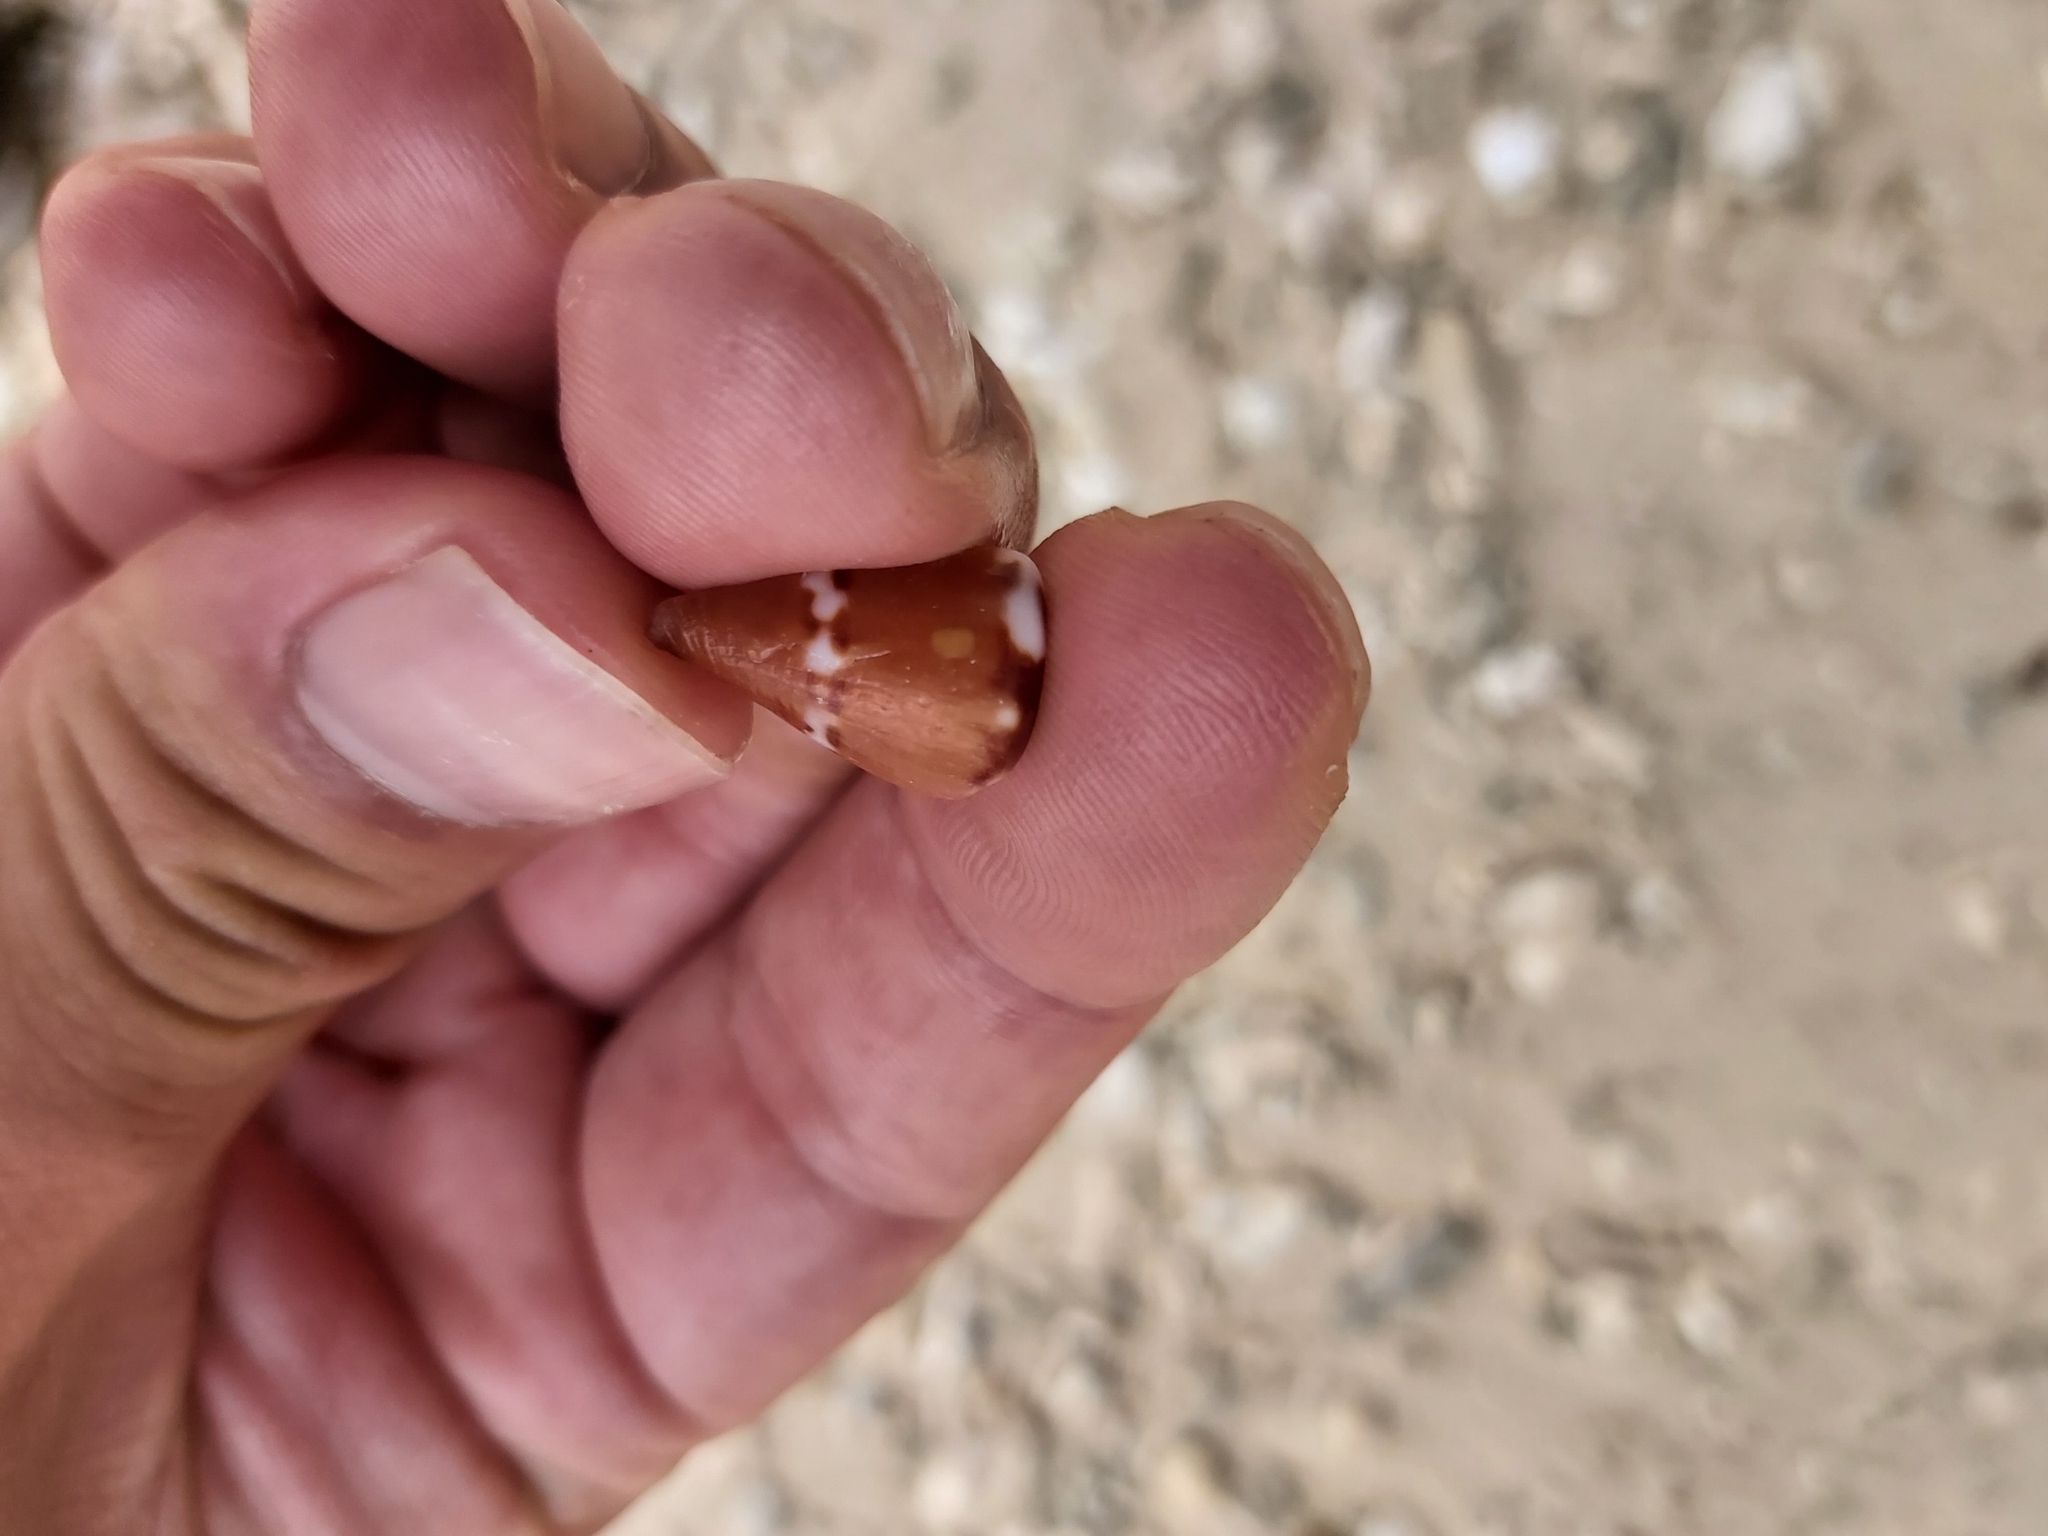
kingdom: Animalia
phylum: Mollusca
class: Gastropoda
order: Neogastropoda
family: Conidae
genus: Conus
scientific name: Conus capitaneus
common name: Captain cone
